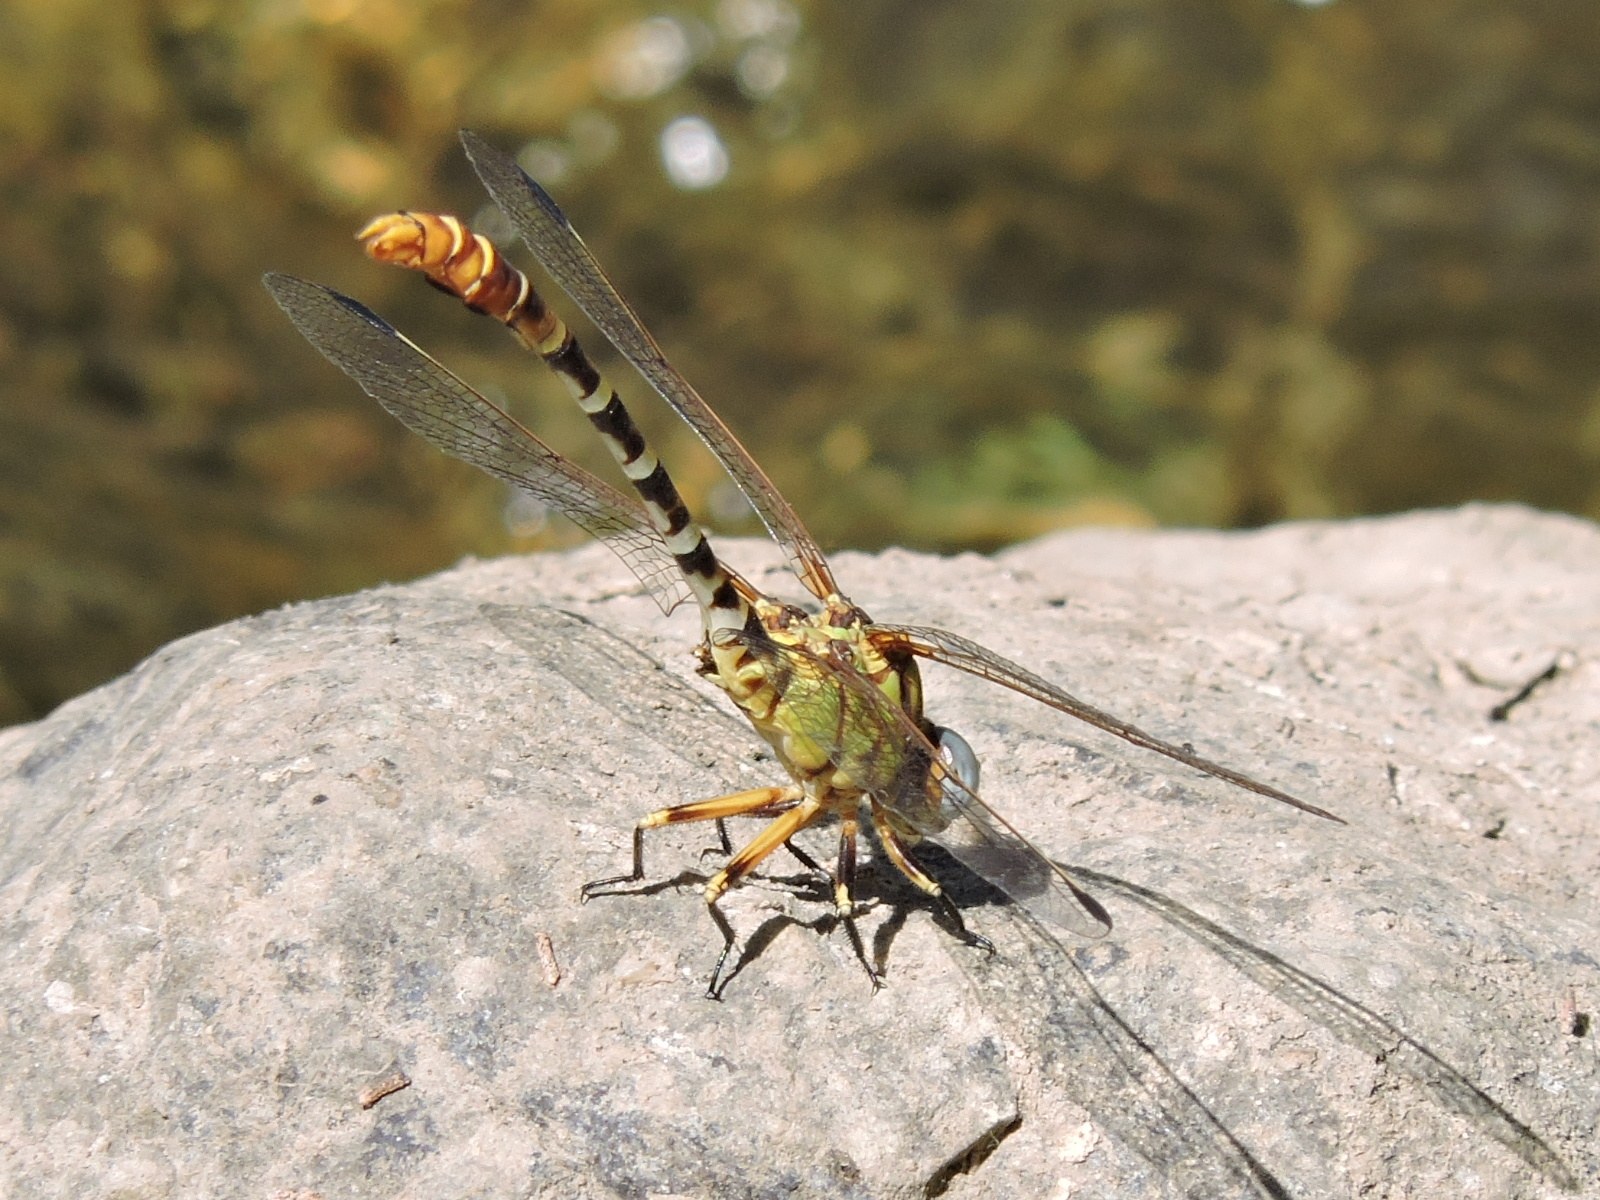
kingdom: Animalia
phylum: Arthropoda
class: Insecta
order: Odonata
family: Gomphidae
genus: Erpetogomphus
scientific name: Erpetogomphus designatus
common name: Eastern ringtail
